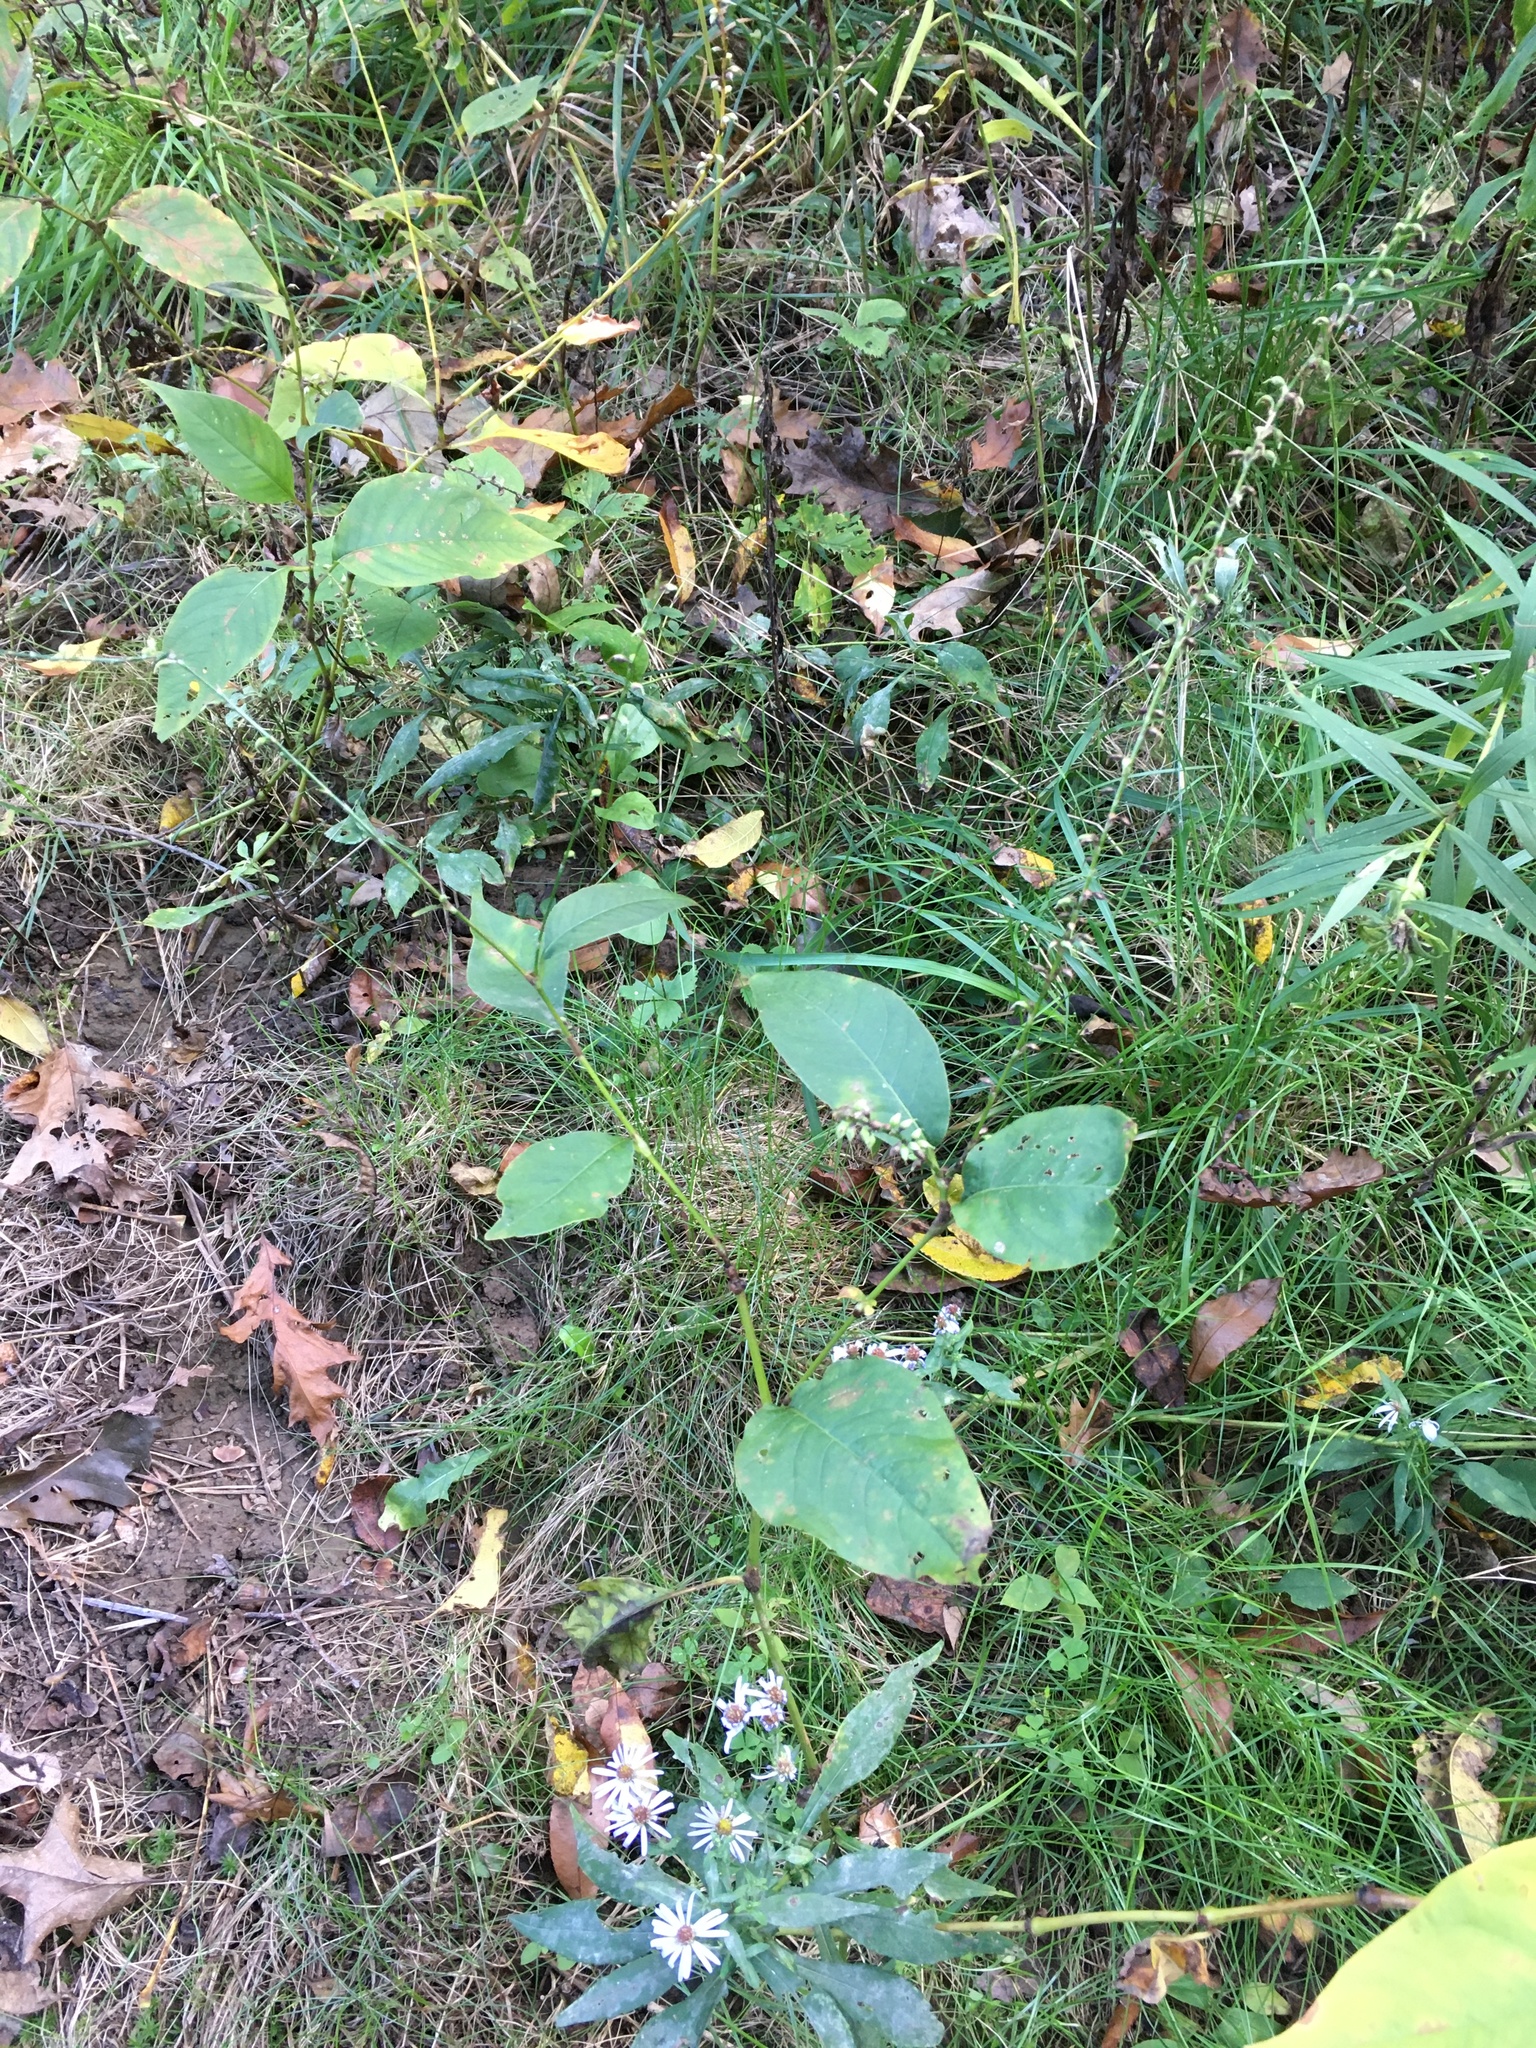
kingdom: Plantae
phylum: Tracheophyta
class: Magnoliopsida
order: Caryophyllales
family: Polygonaceae
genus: Persicaria
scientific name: Persicaria virginiana
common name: Jumpseed
